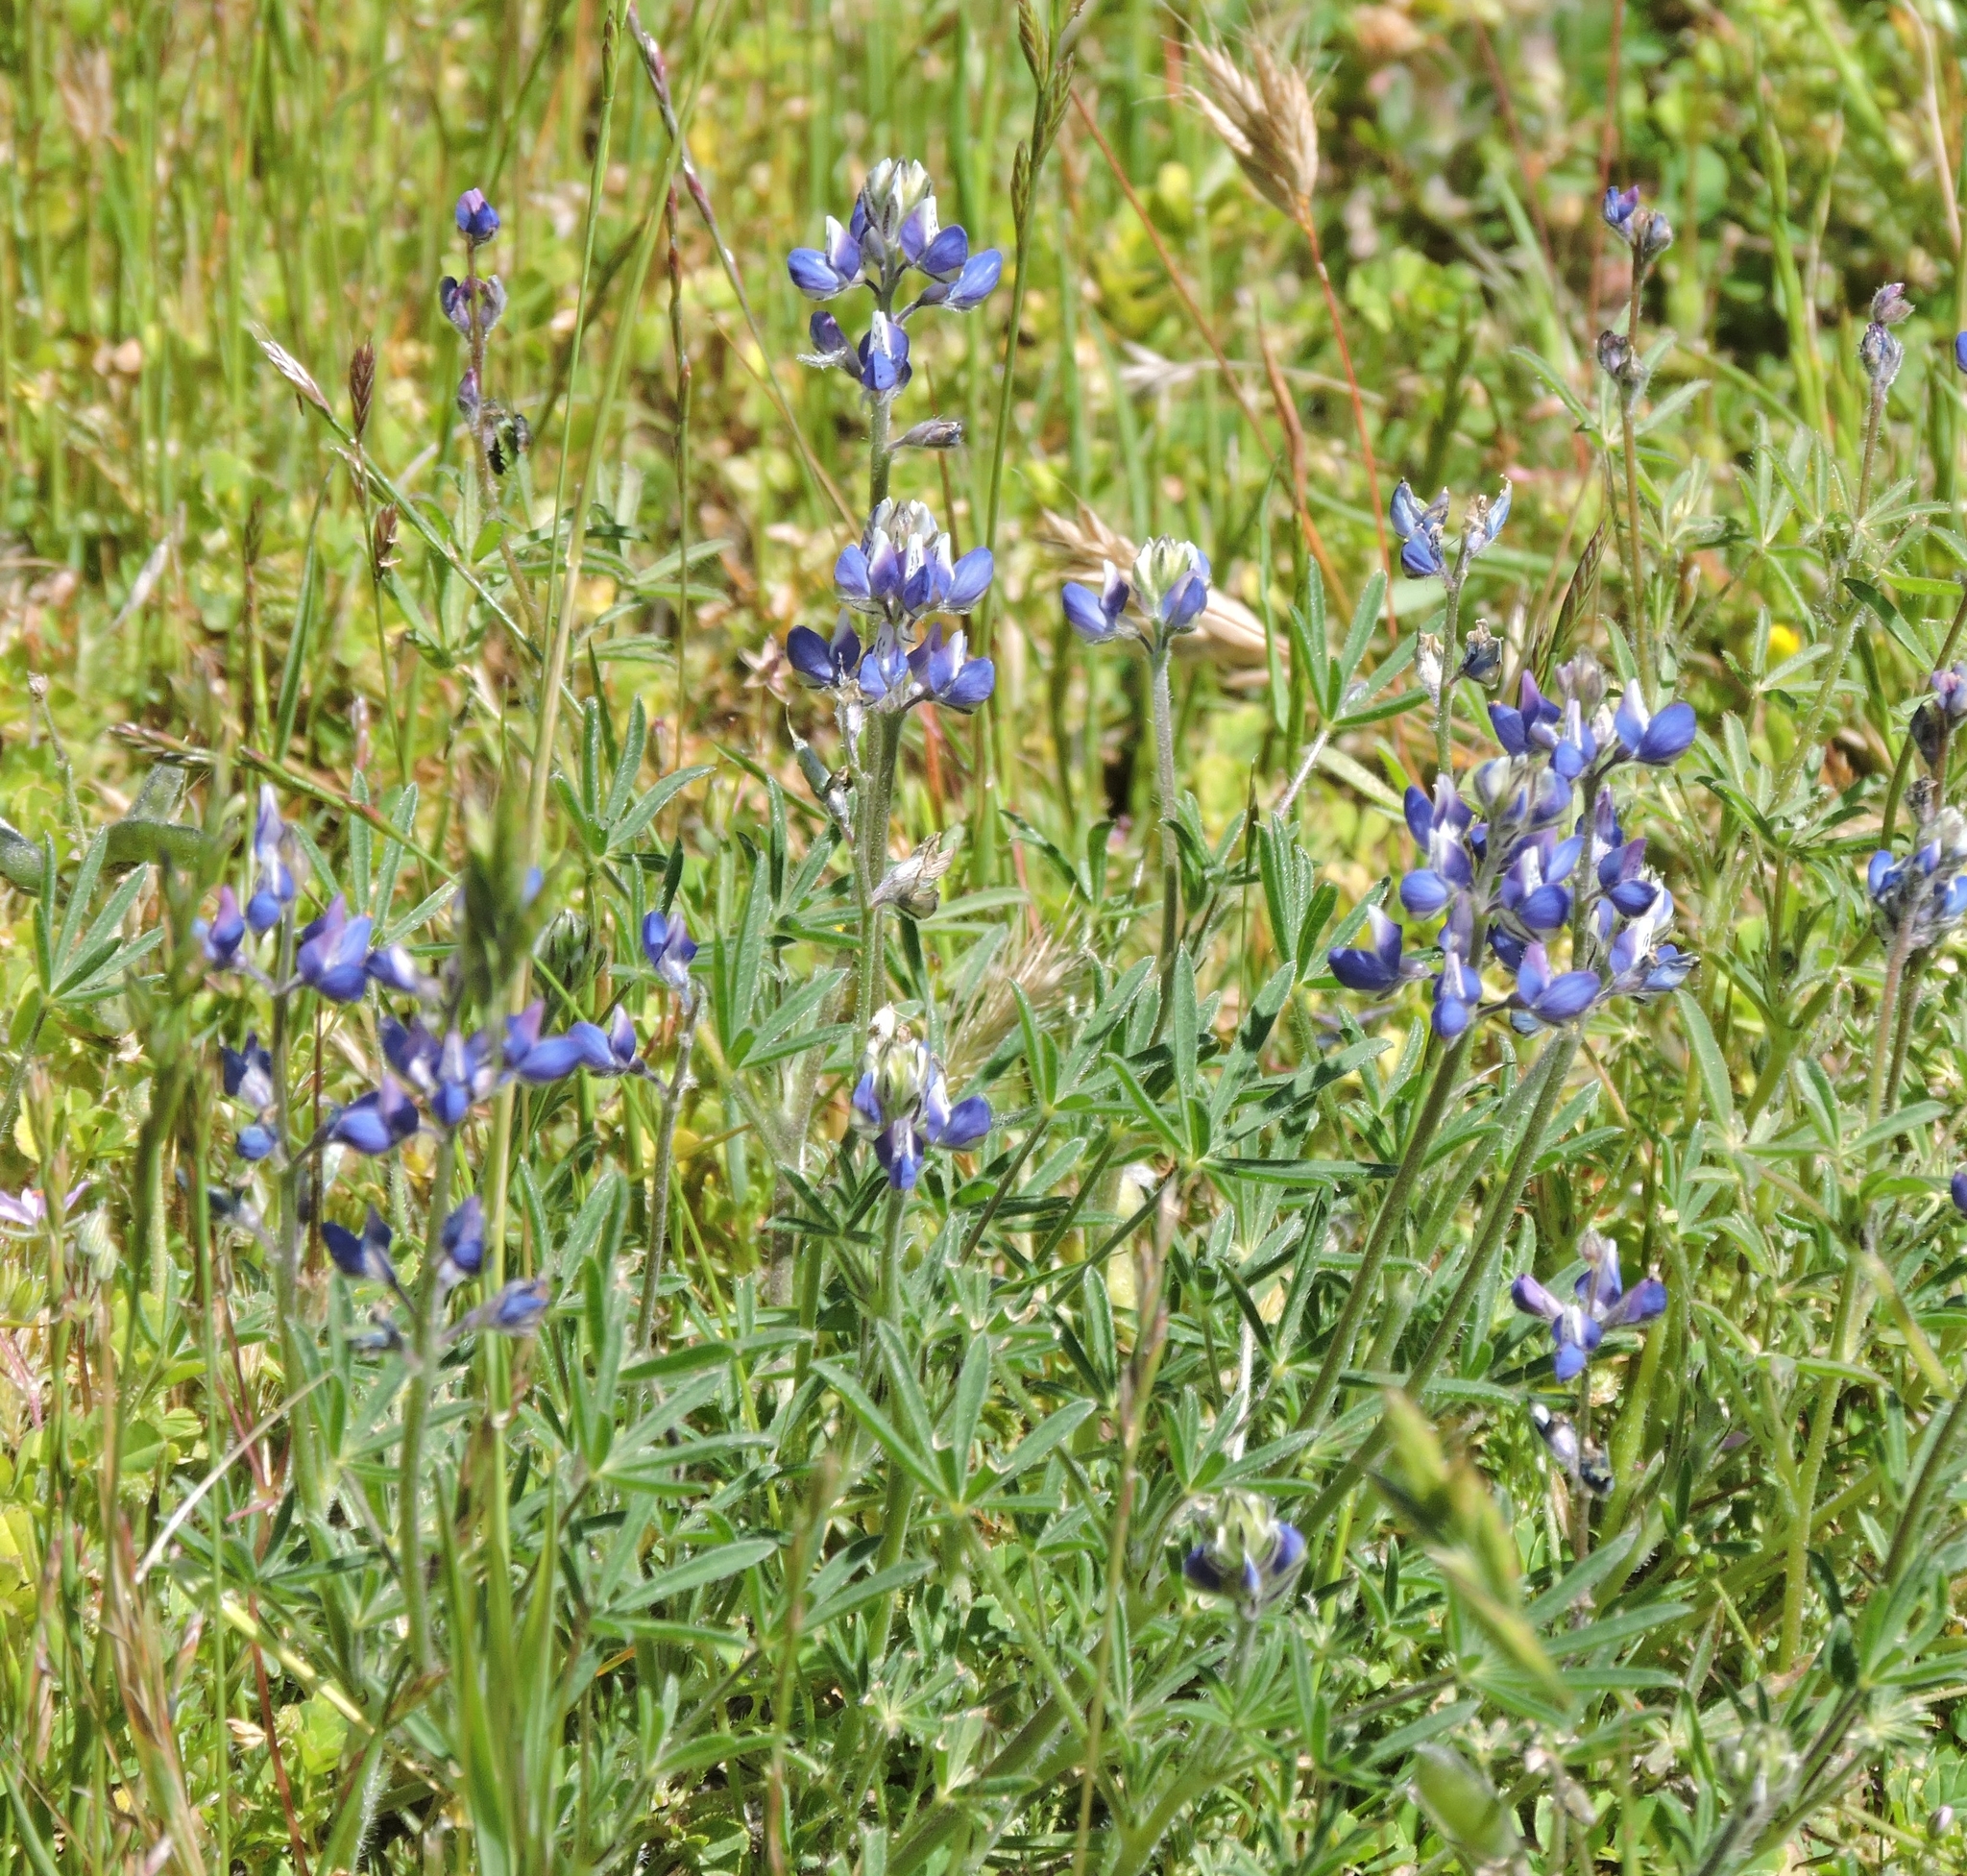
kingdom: Plantae
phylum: Tracheophyta
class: Magnoliopsida
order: Fabales
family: Fabaceae
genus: Lupinus
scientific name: Lupinus bicolor
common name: Miniature lupine
